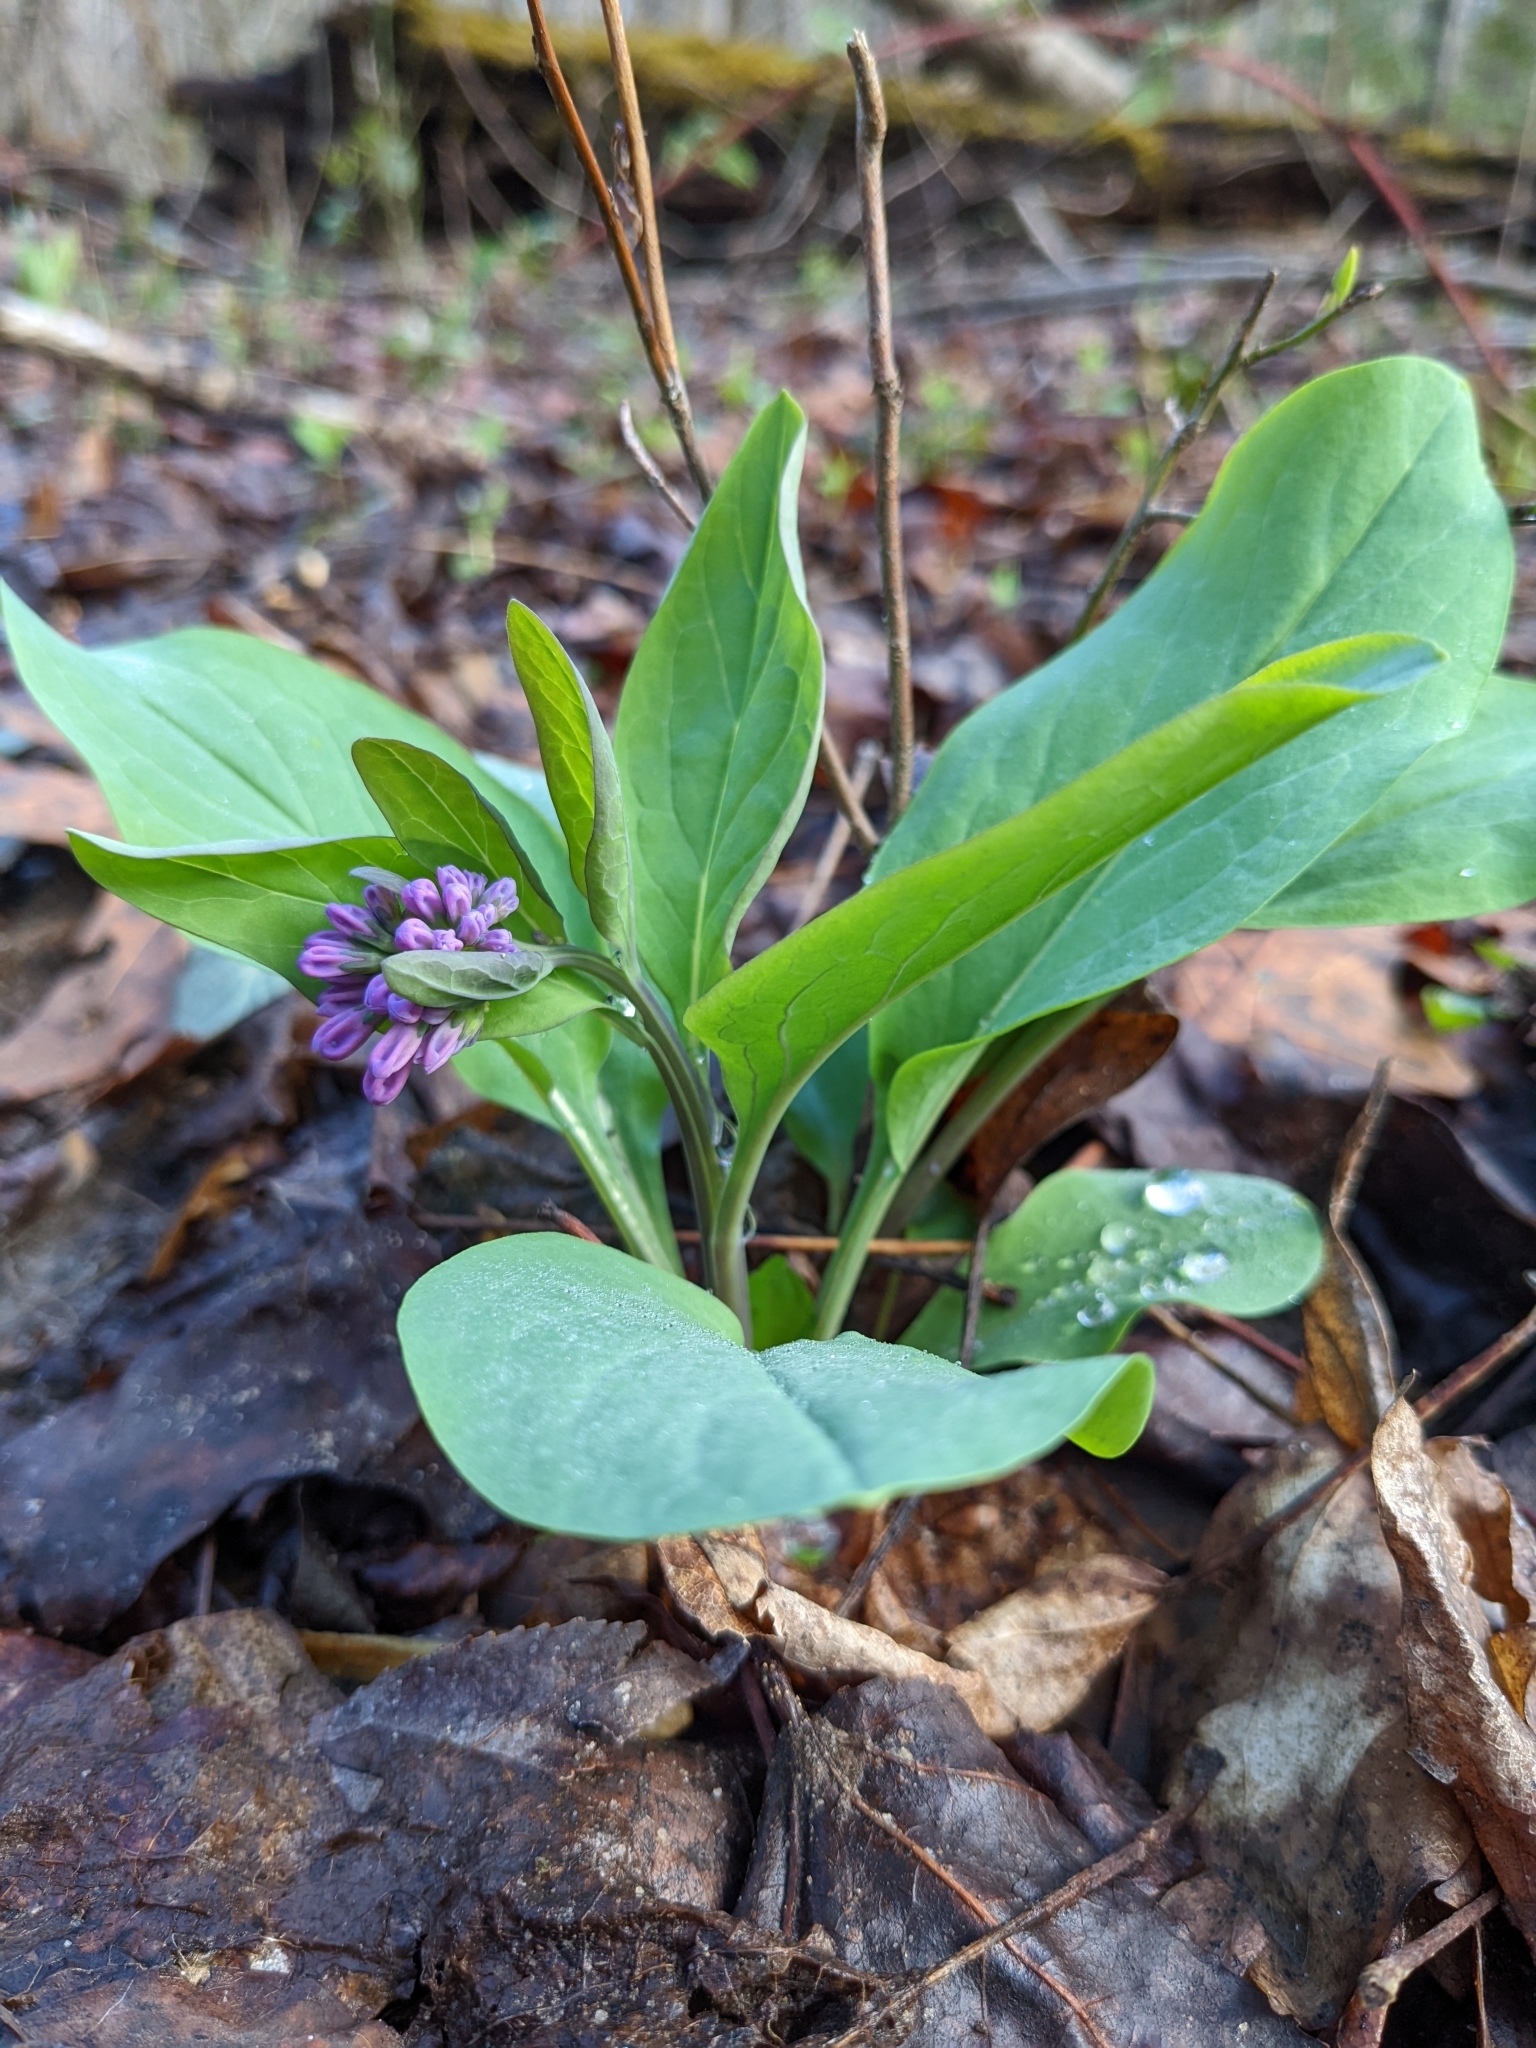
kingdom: Plantae
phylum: Tracheophyta
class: Magnoliopsida
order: Boraginales
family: Boraginaceae
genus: Mertensia
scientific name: Mertensia virginica
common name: Virginia bluebells
